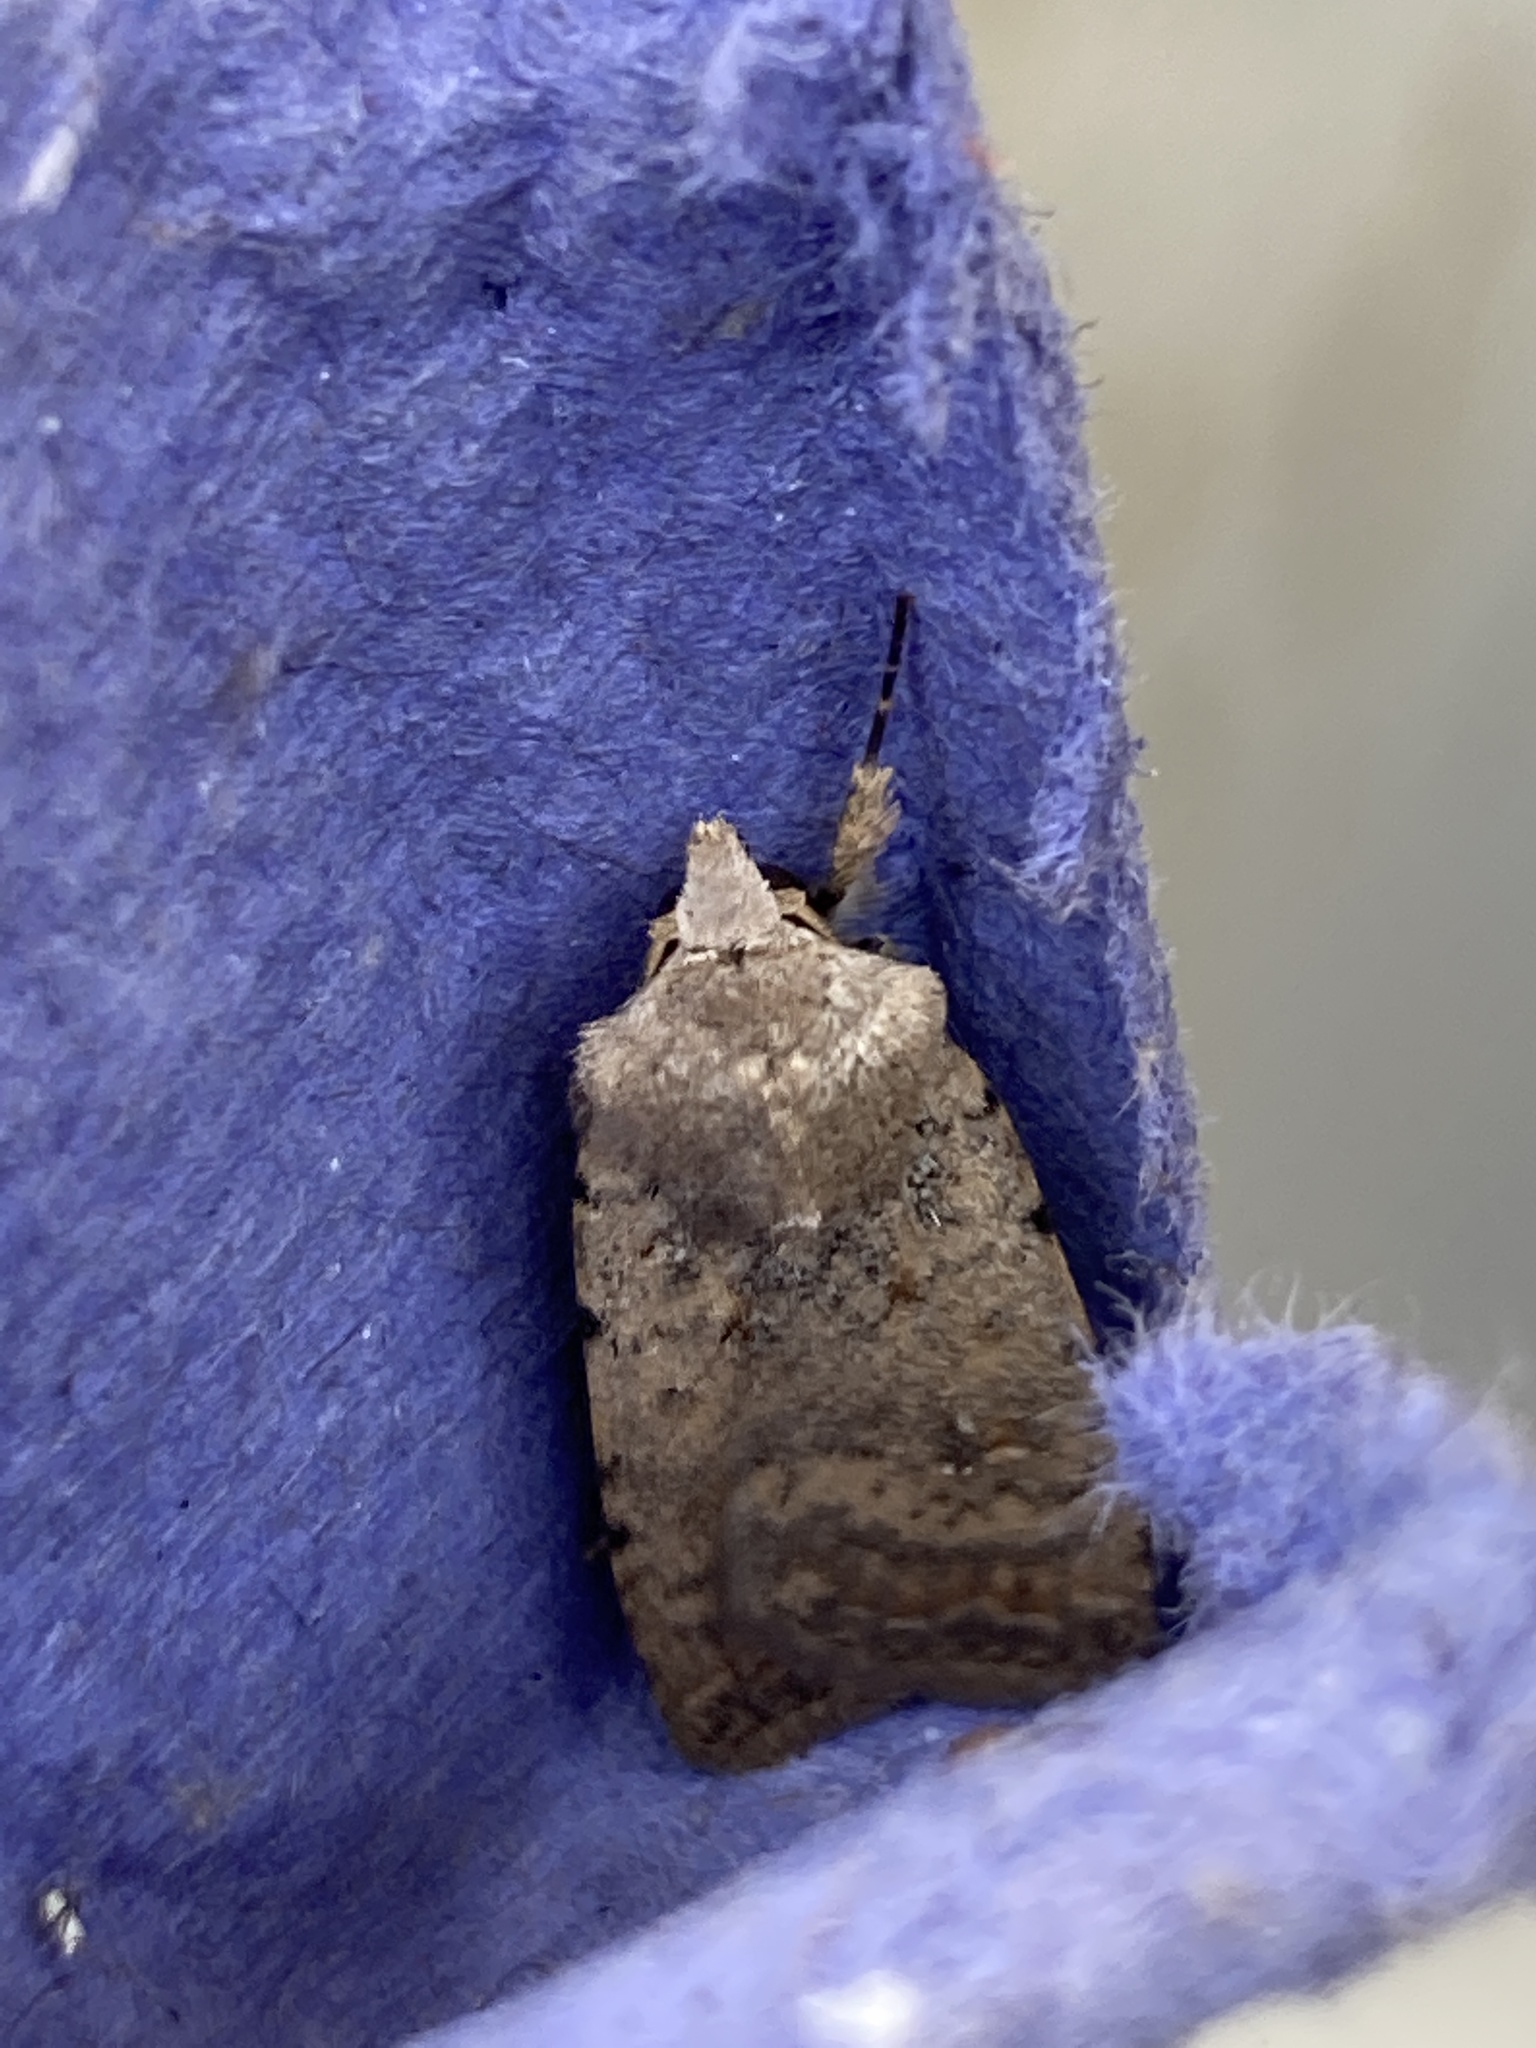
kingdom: Animalia
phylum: Arthropoda
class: Insecta
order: Lepidoptera
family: Noctuidae
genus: Caradrina
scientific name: Caradrina clavipalpis
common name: Pale mottled willow
